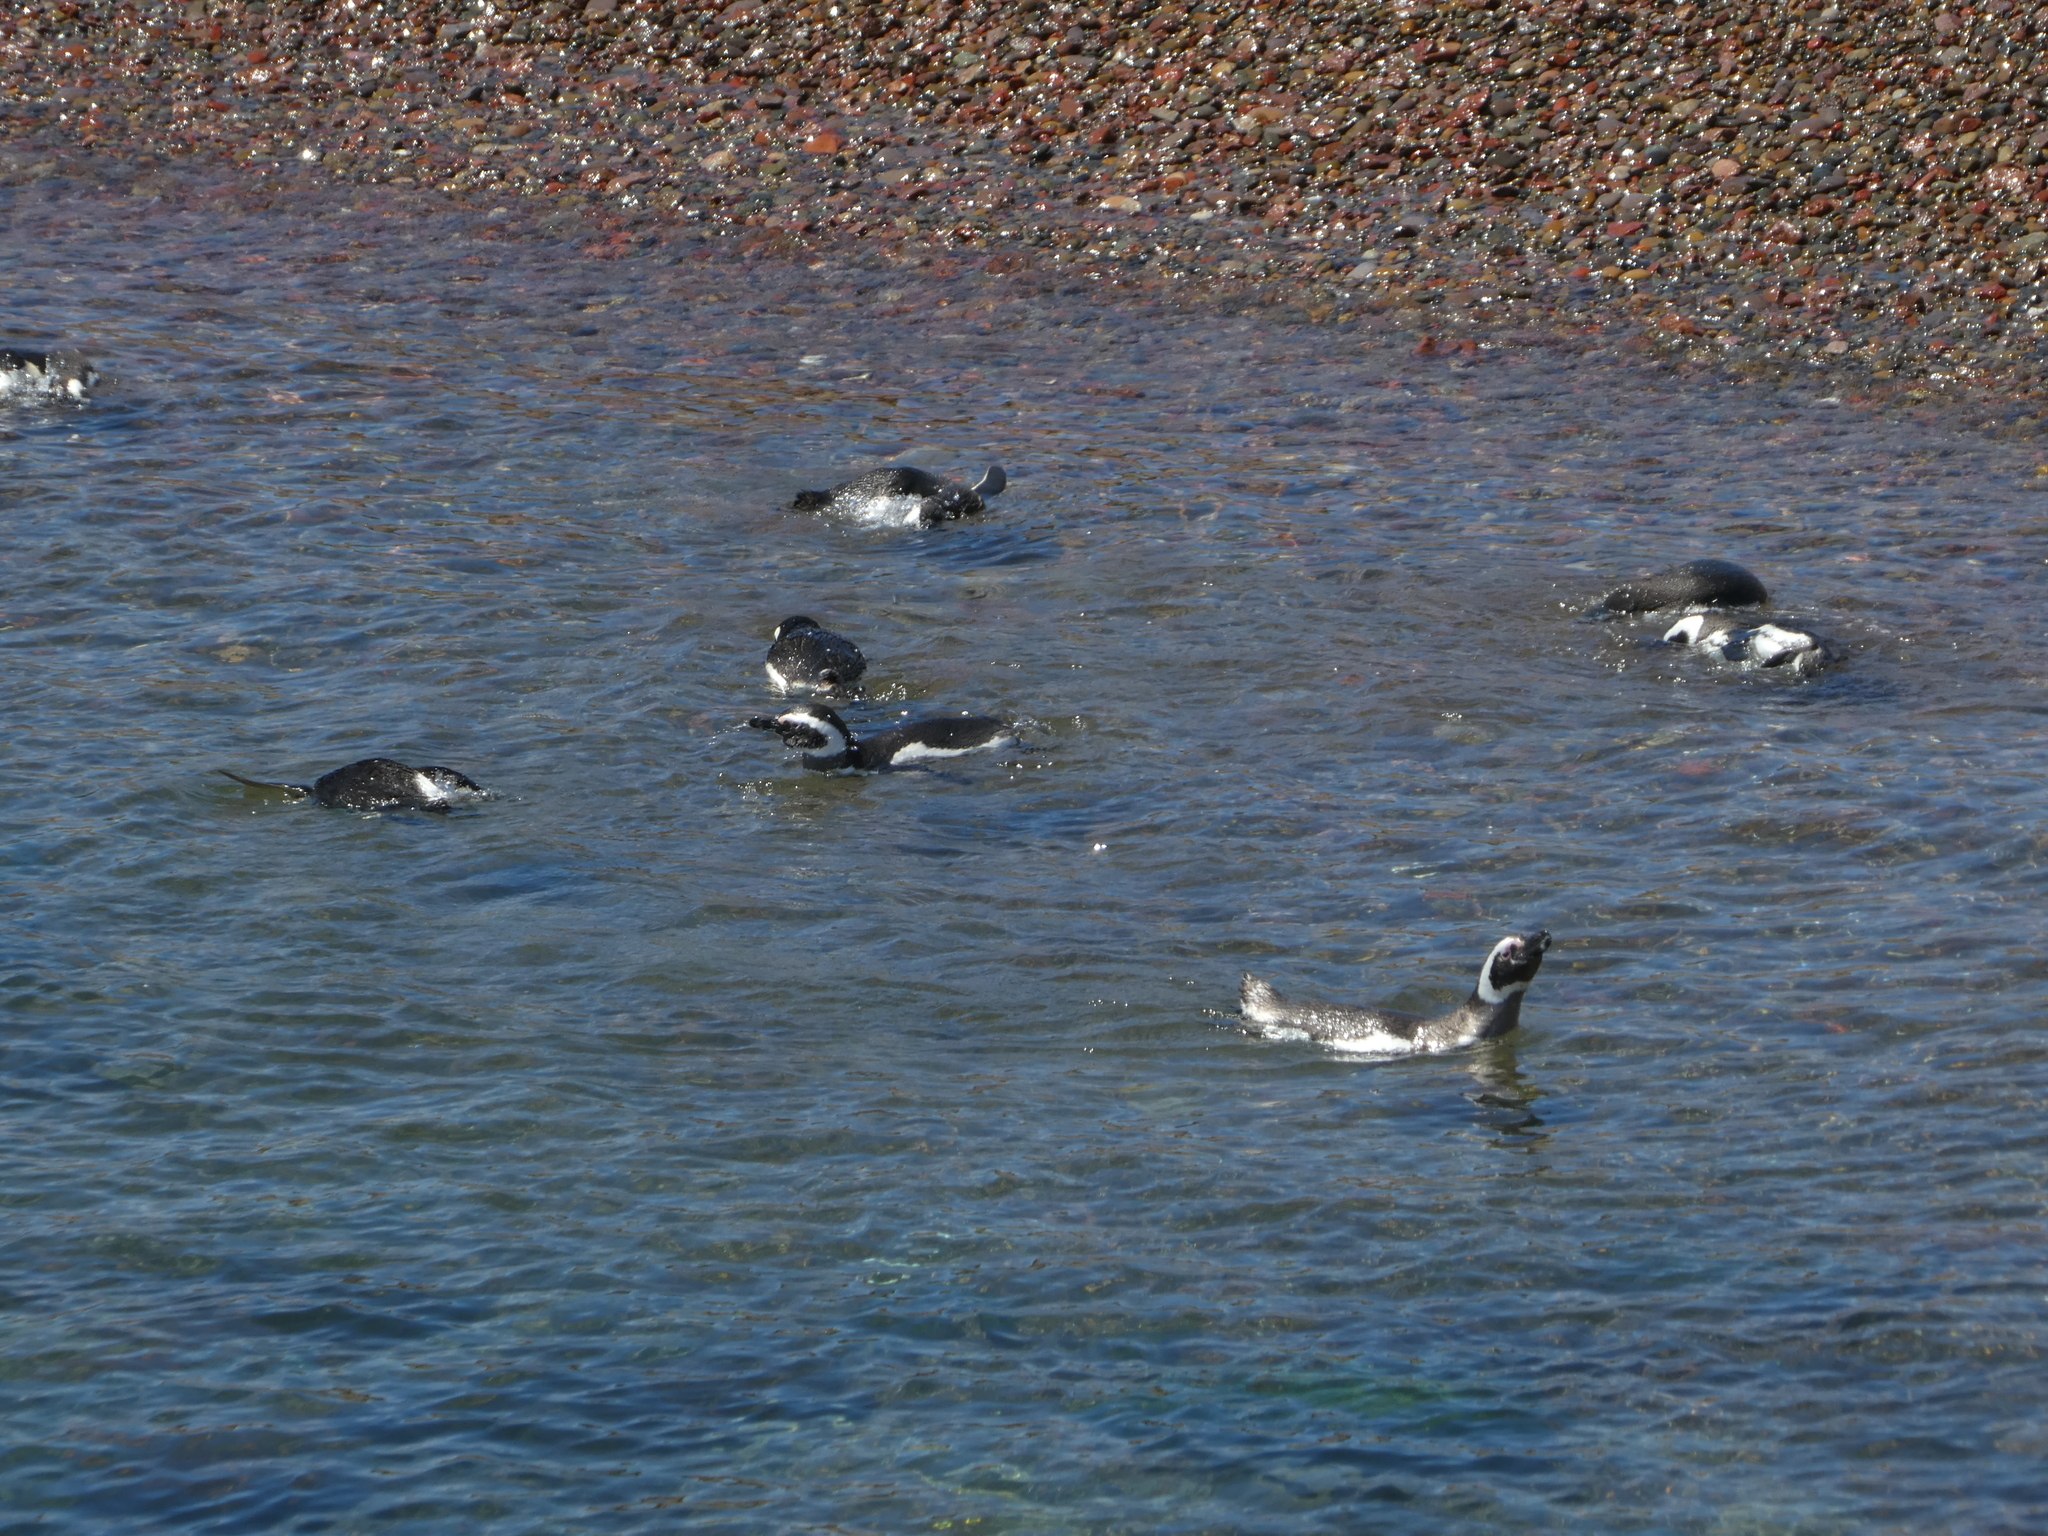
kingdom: Animalia
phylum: Chordata
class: Aves
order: Sphenisciformes
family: Spheniscidae
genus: Spheniscus
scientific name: Spheniscus magellanicus
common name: Magellanic penguin
